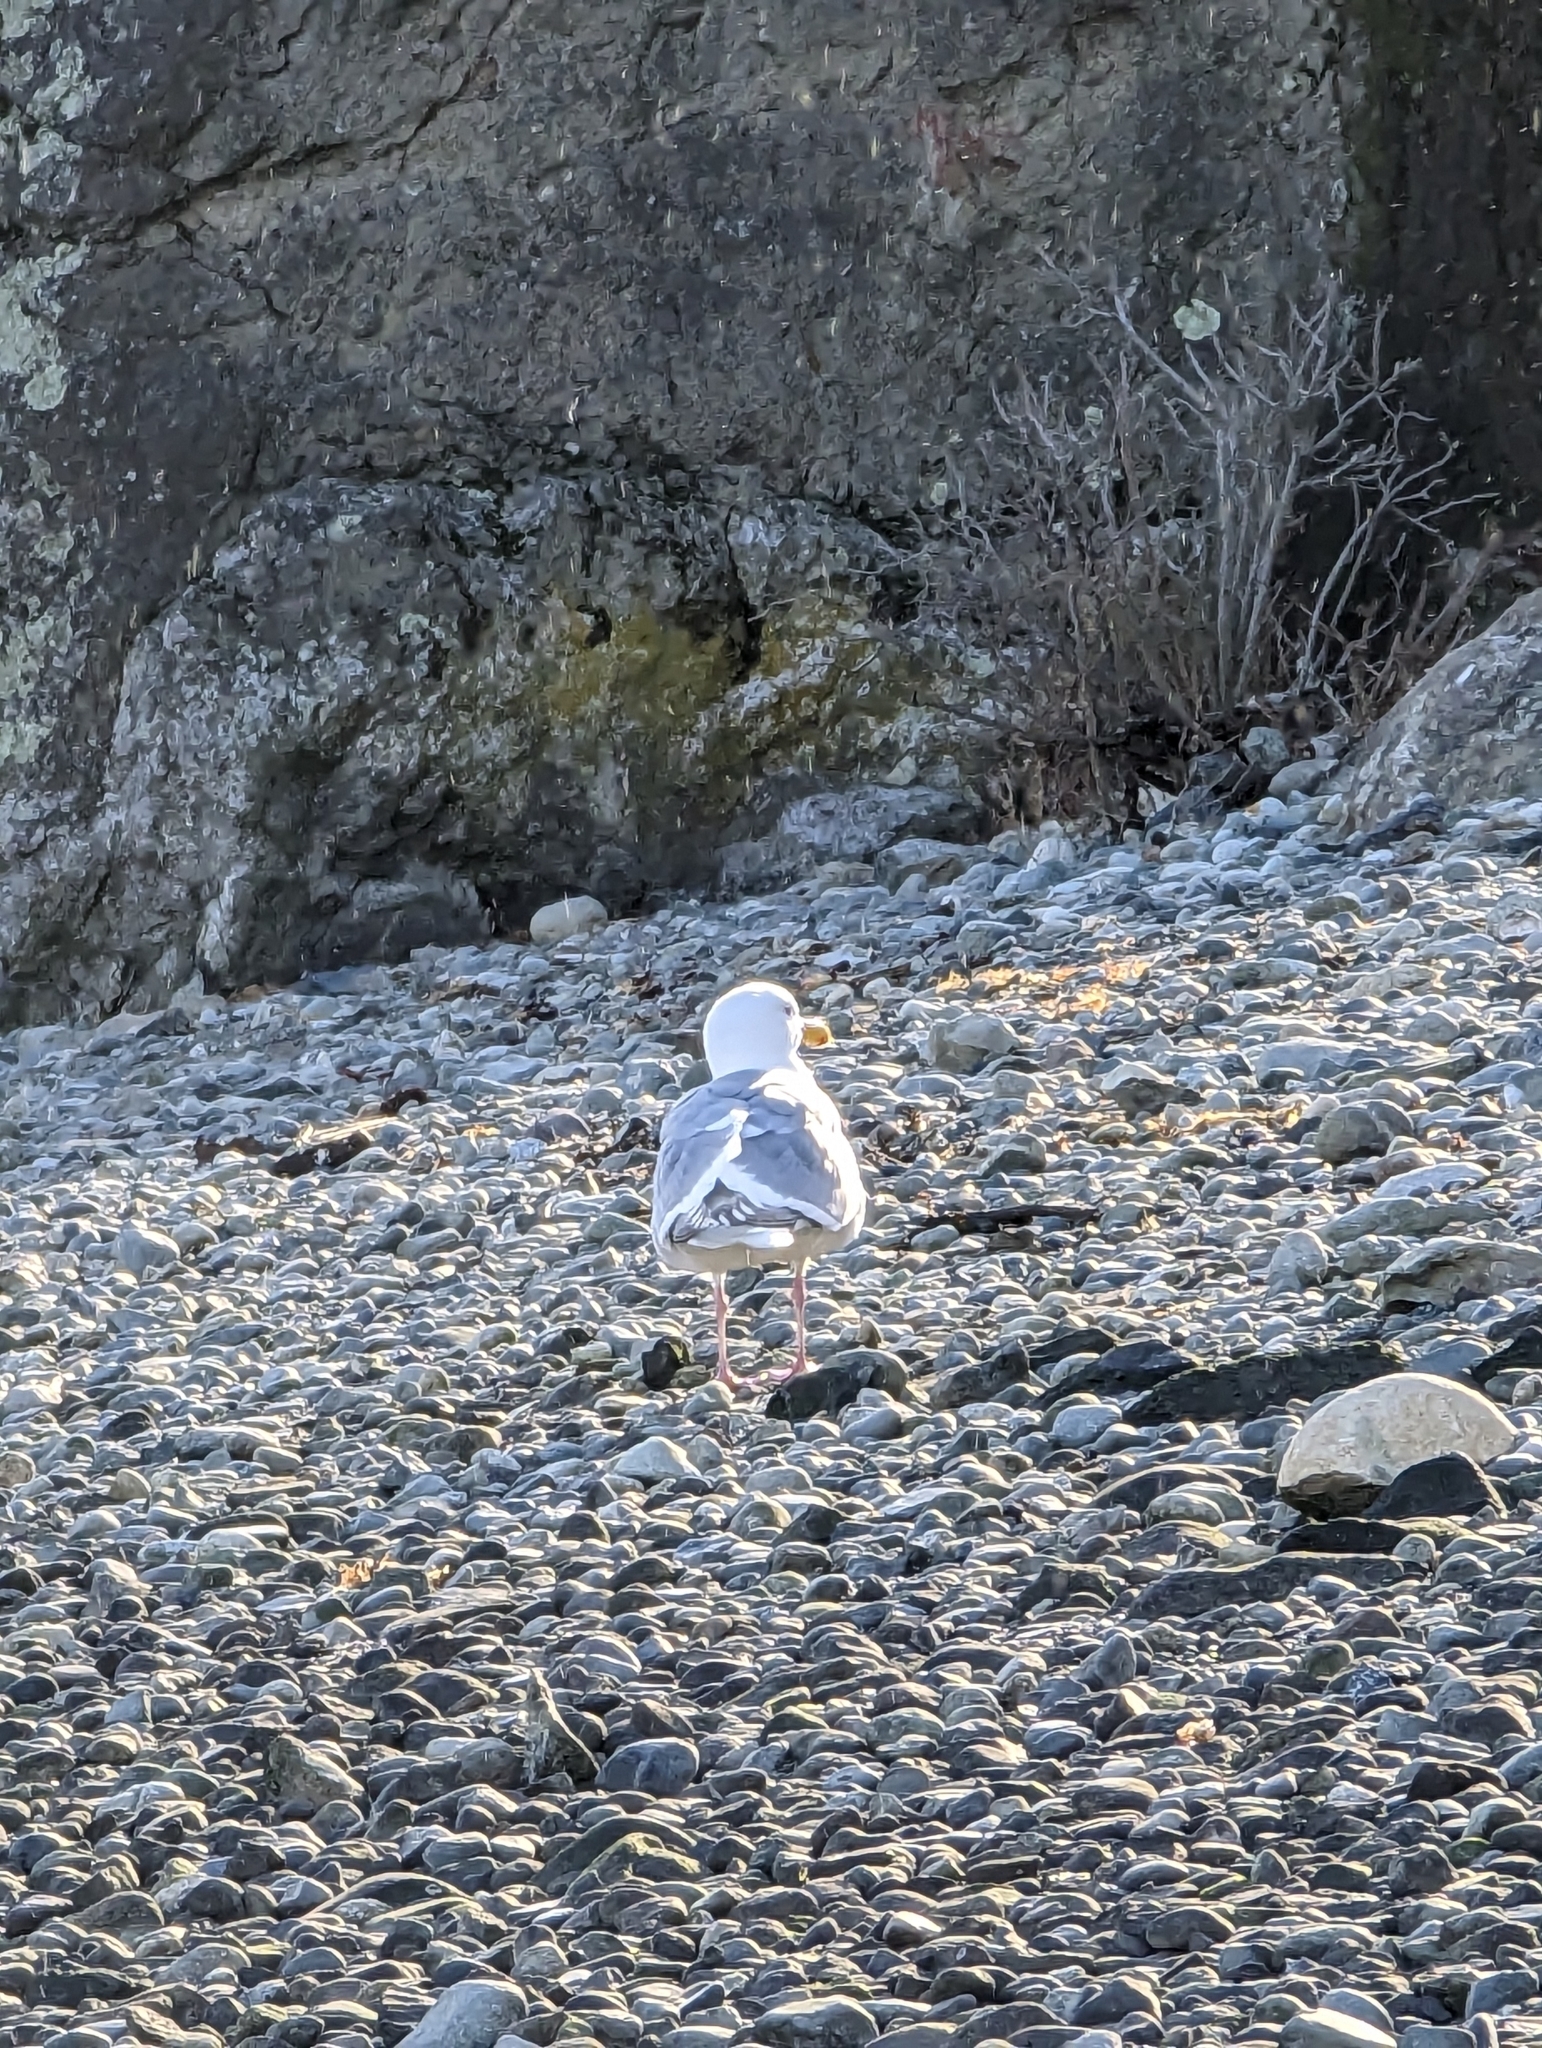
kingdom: Animalia
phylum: Chordata
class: Aves
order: Charadriiformes
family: Laridae
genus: Larus
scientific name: Larus
